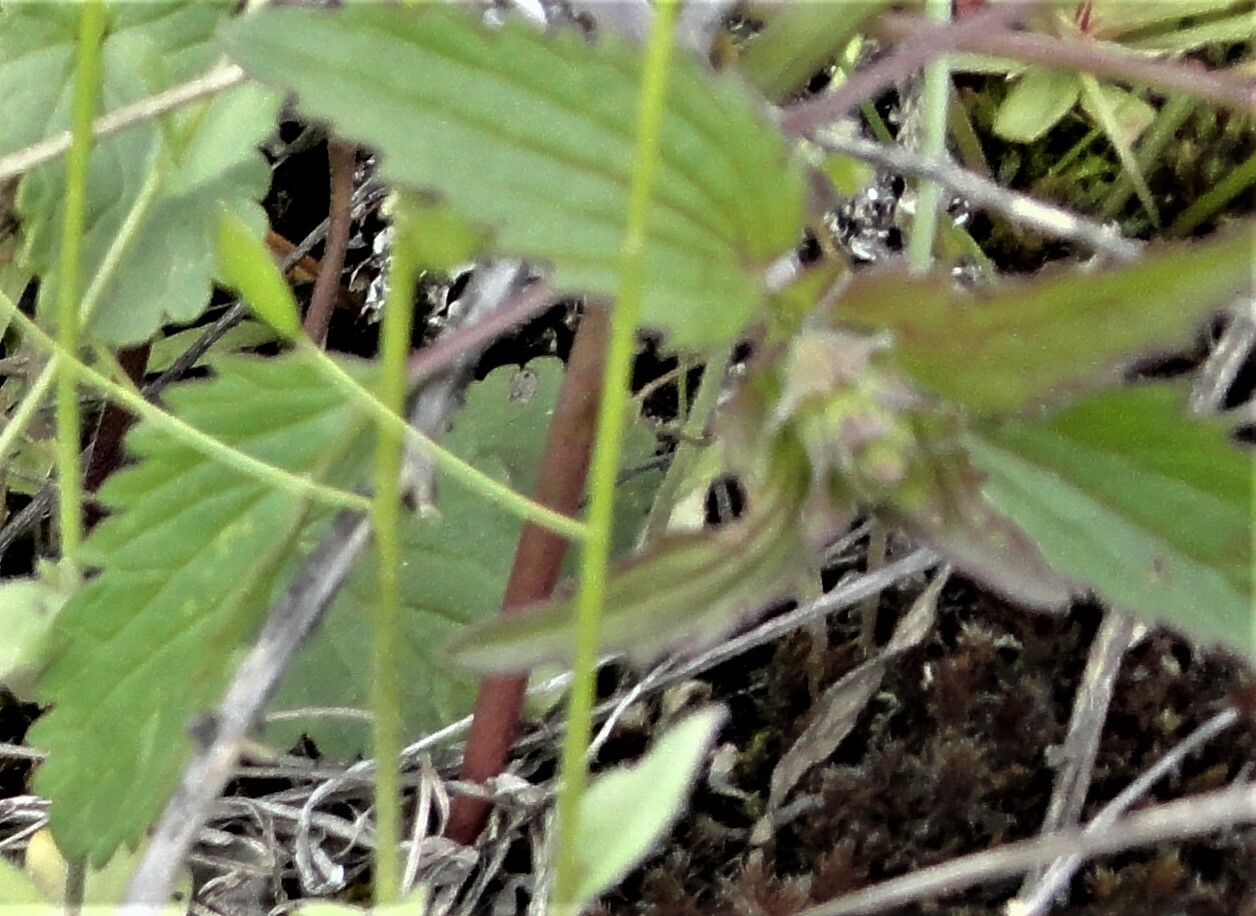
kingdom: Plantae
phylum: Tracheophyta
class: Magnoliopsida
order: Lamiales
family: Lamiaceae
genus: Dracocephalum
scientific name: Dracocephalum nutans
